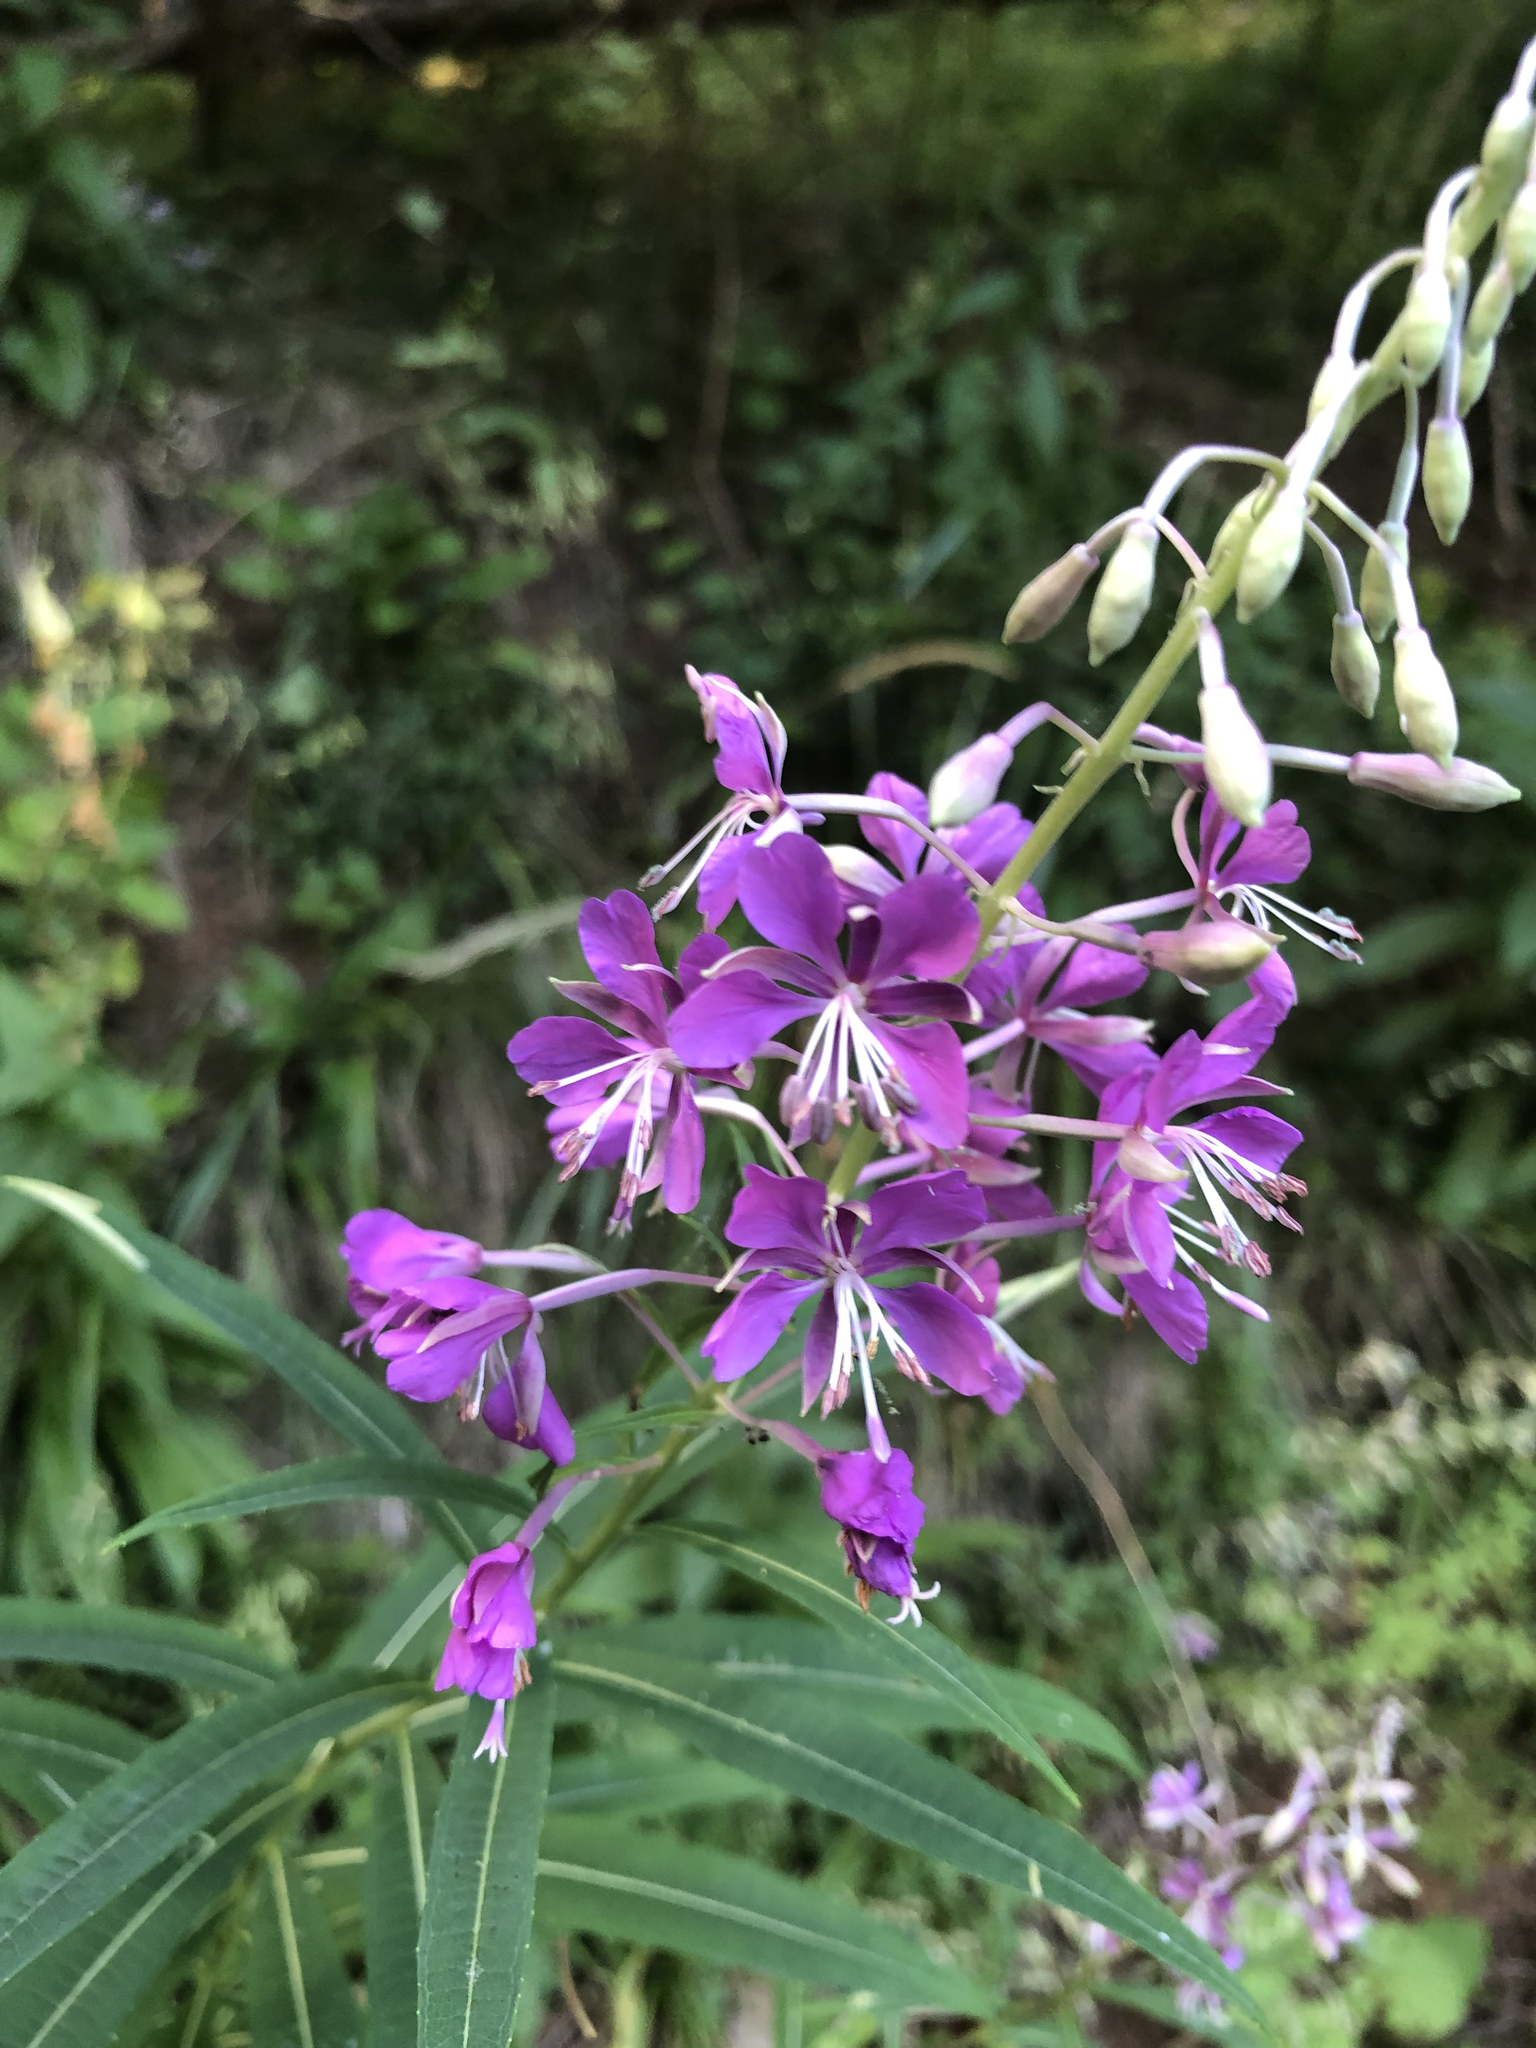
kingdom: Plantae
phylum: Tracheophyta
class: Magnoliopsida
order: Myrtales
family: Onagraceae
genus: Chamaenerion
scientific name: Chamaenerion angustifolium
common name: Fireweed
